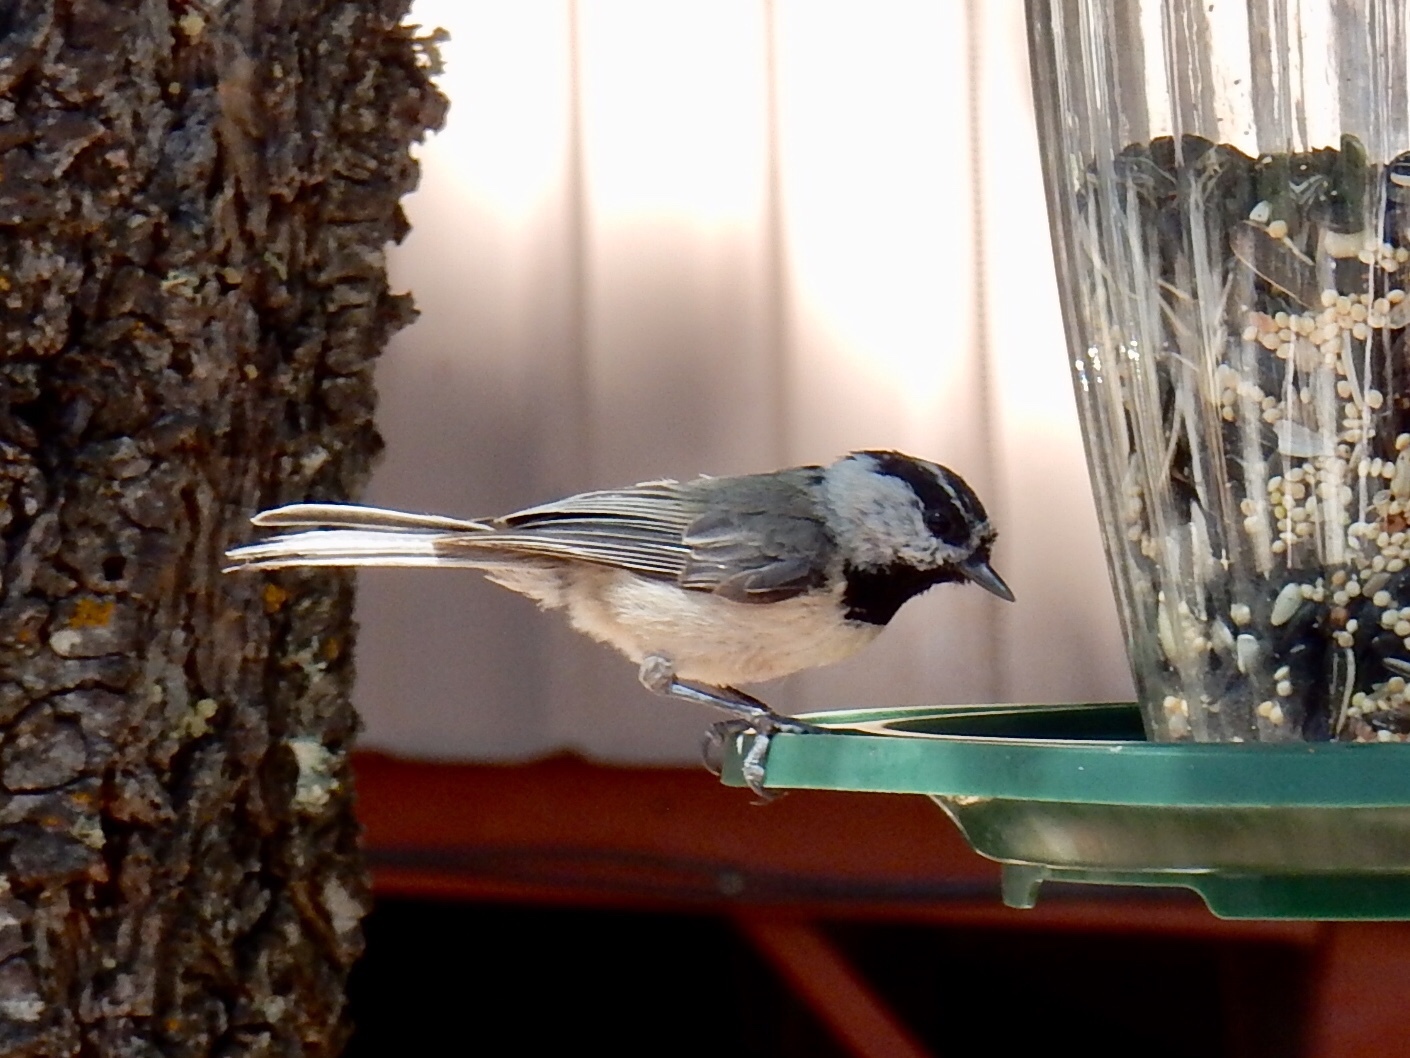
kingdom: Animalia
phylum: Chordata
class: Aves
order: Passeriformes
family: Paridae
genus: Poecile
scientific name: Poecile gambeli
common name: Mountain chickadee
